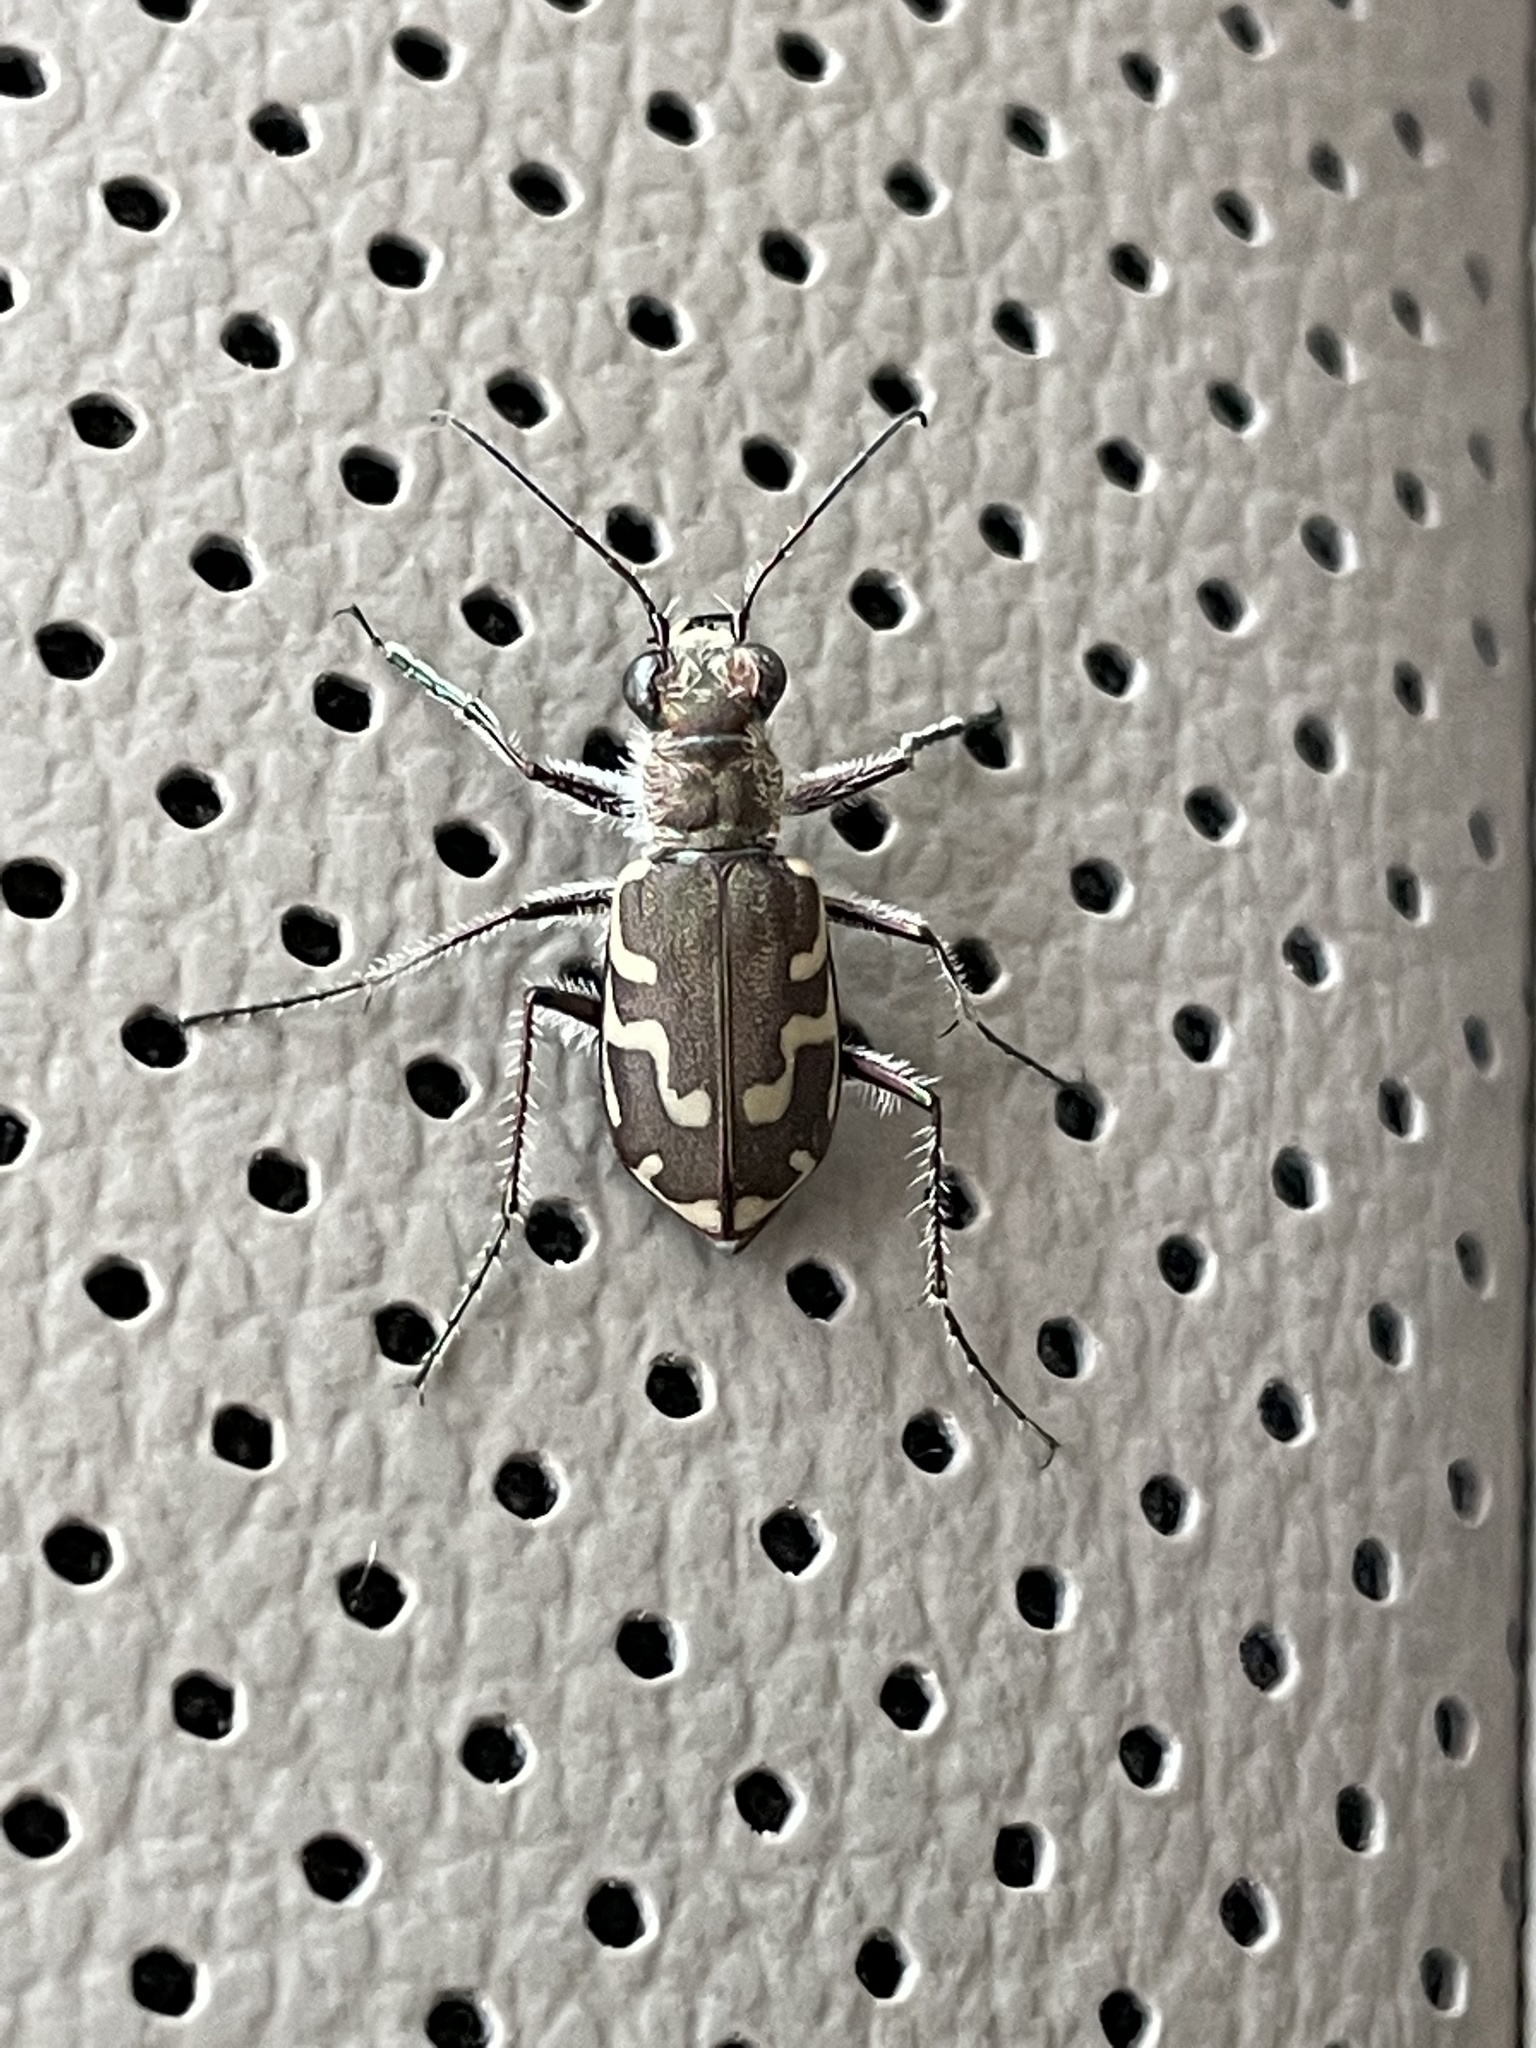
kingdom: Animalia
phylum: Arthropoda
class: Insecta
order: Coleoptera
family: Carabidae
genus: Cicindela
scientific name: Cicindela repanda
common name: Bronzed tiger beetle
